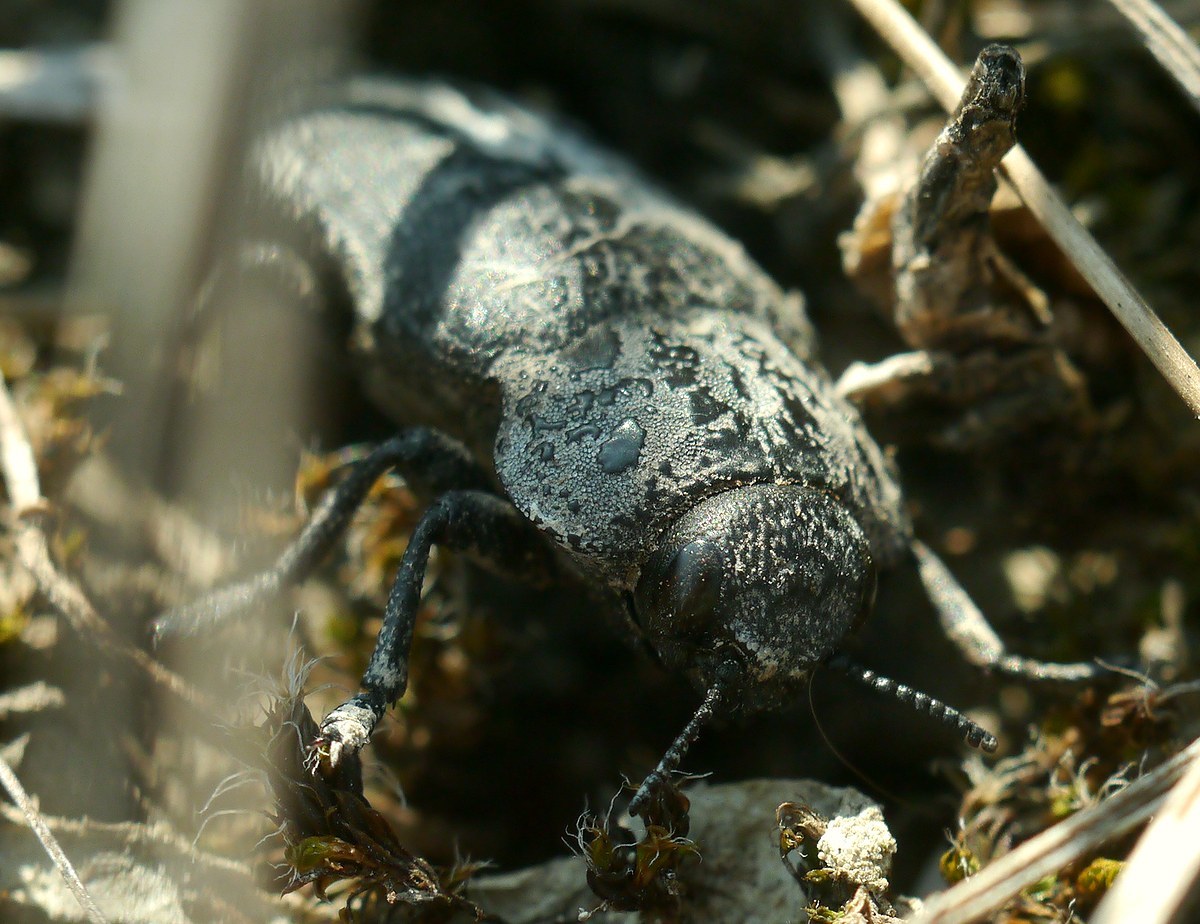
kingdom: Animalia
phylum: Arthropoda
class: Insecta
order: Coleoptera
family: Buprestidae
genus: Capnodis
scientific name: Capnodis tenebrionis
